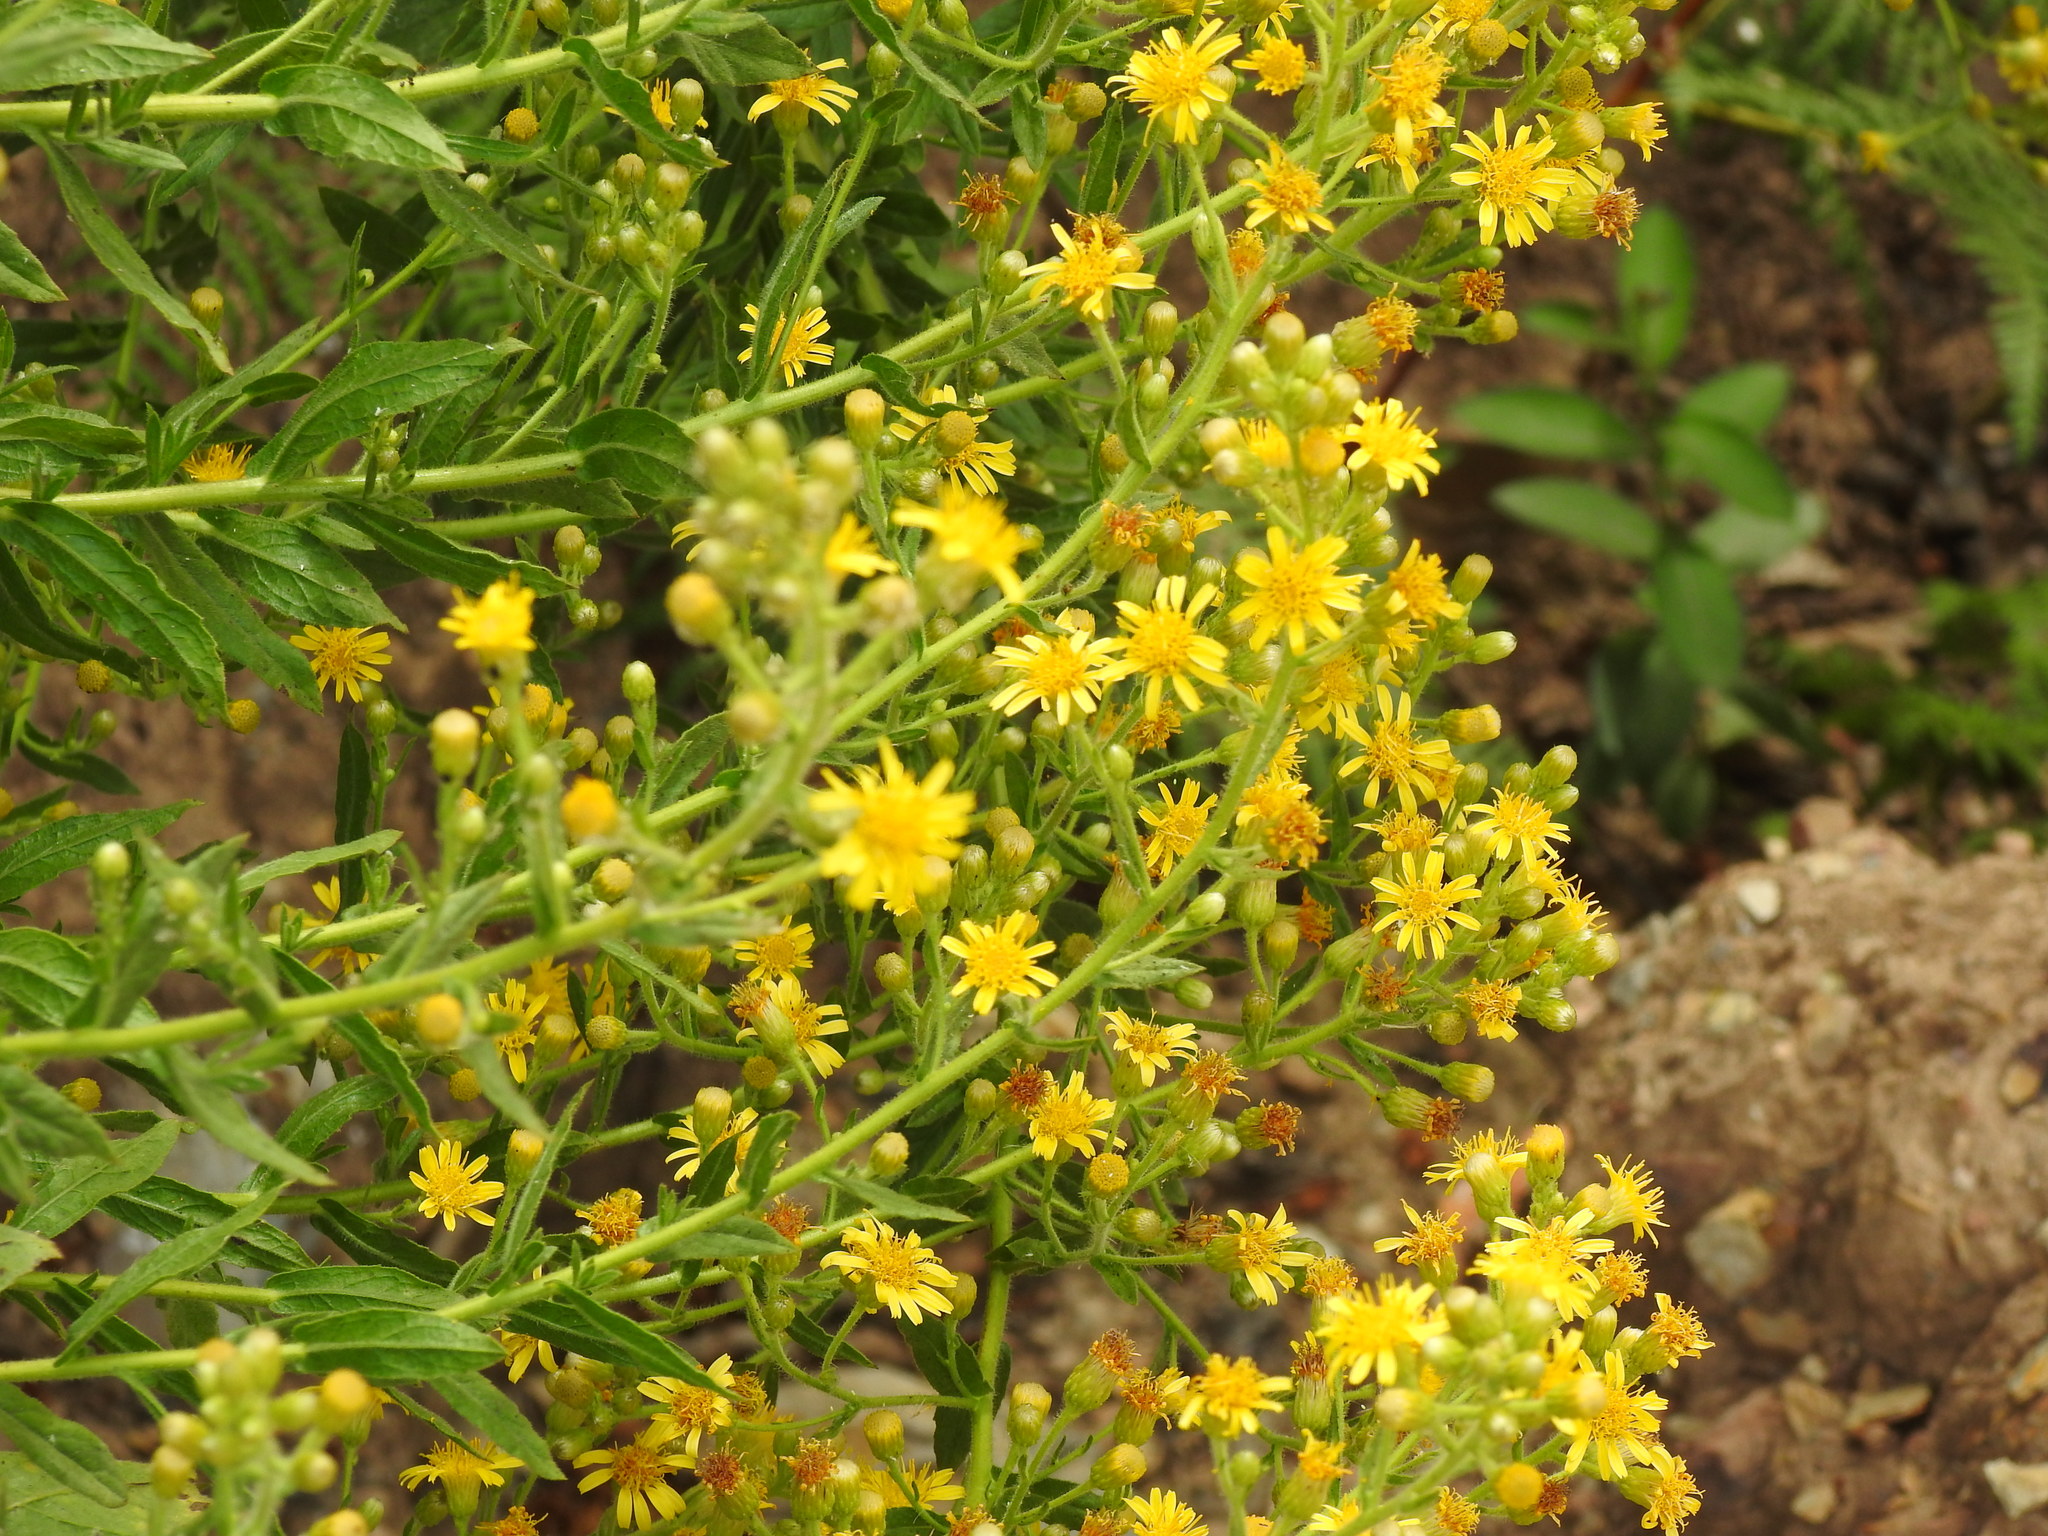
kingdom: Plantae
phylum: Tracheophyta
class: Magnoliopsida
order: Asterales
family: Asteraceae
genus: Dittrichia
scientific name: Dittrichia viscosa
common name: Woody fleabane
